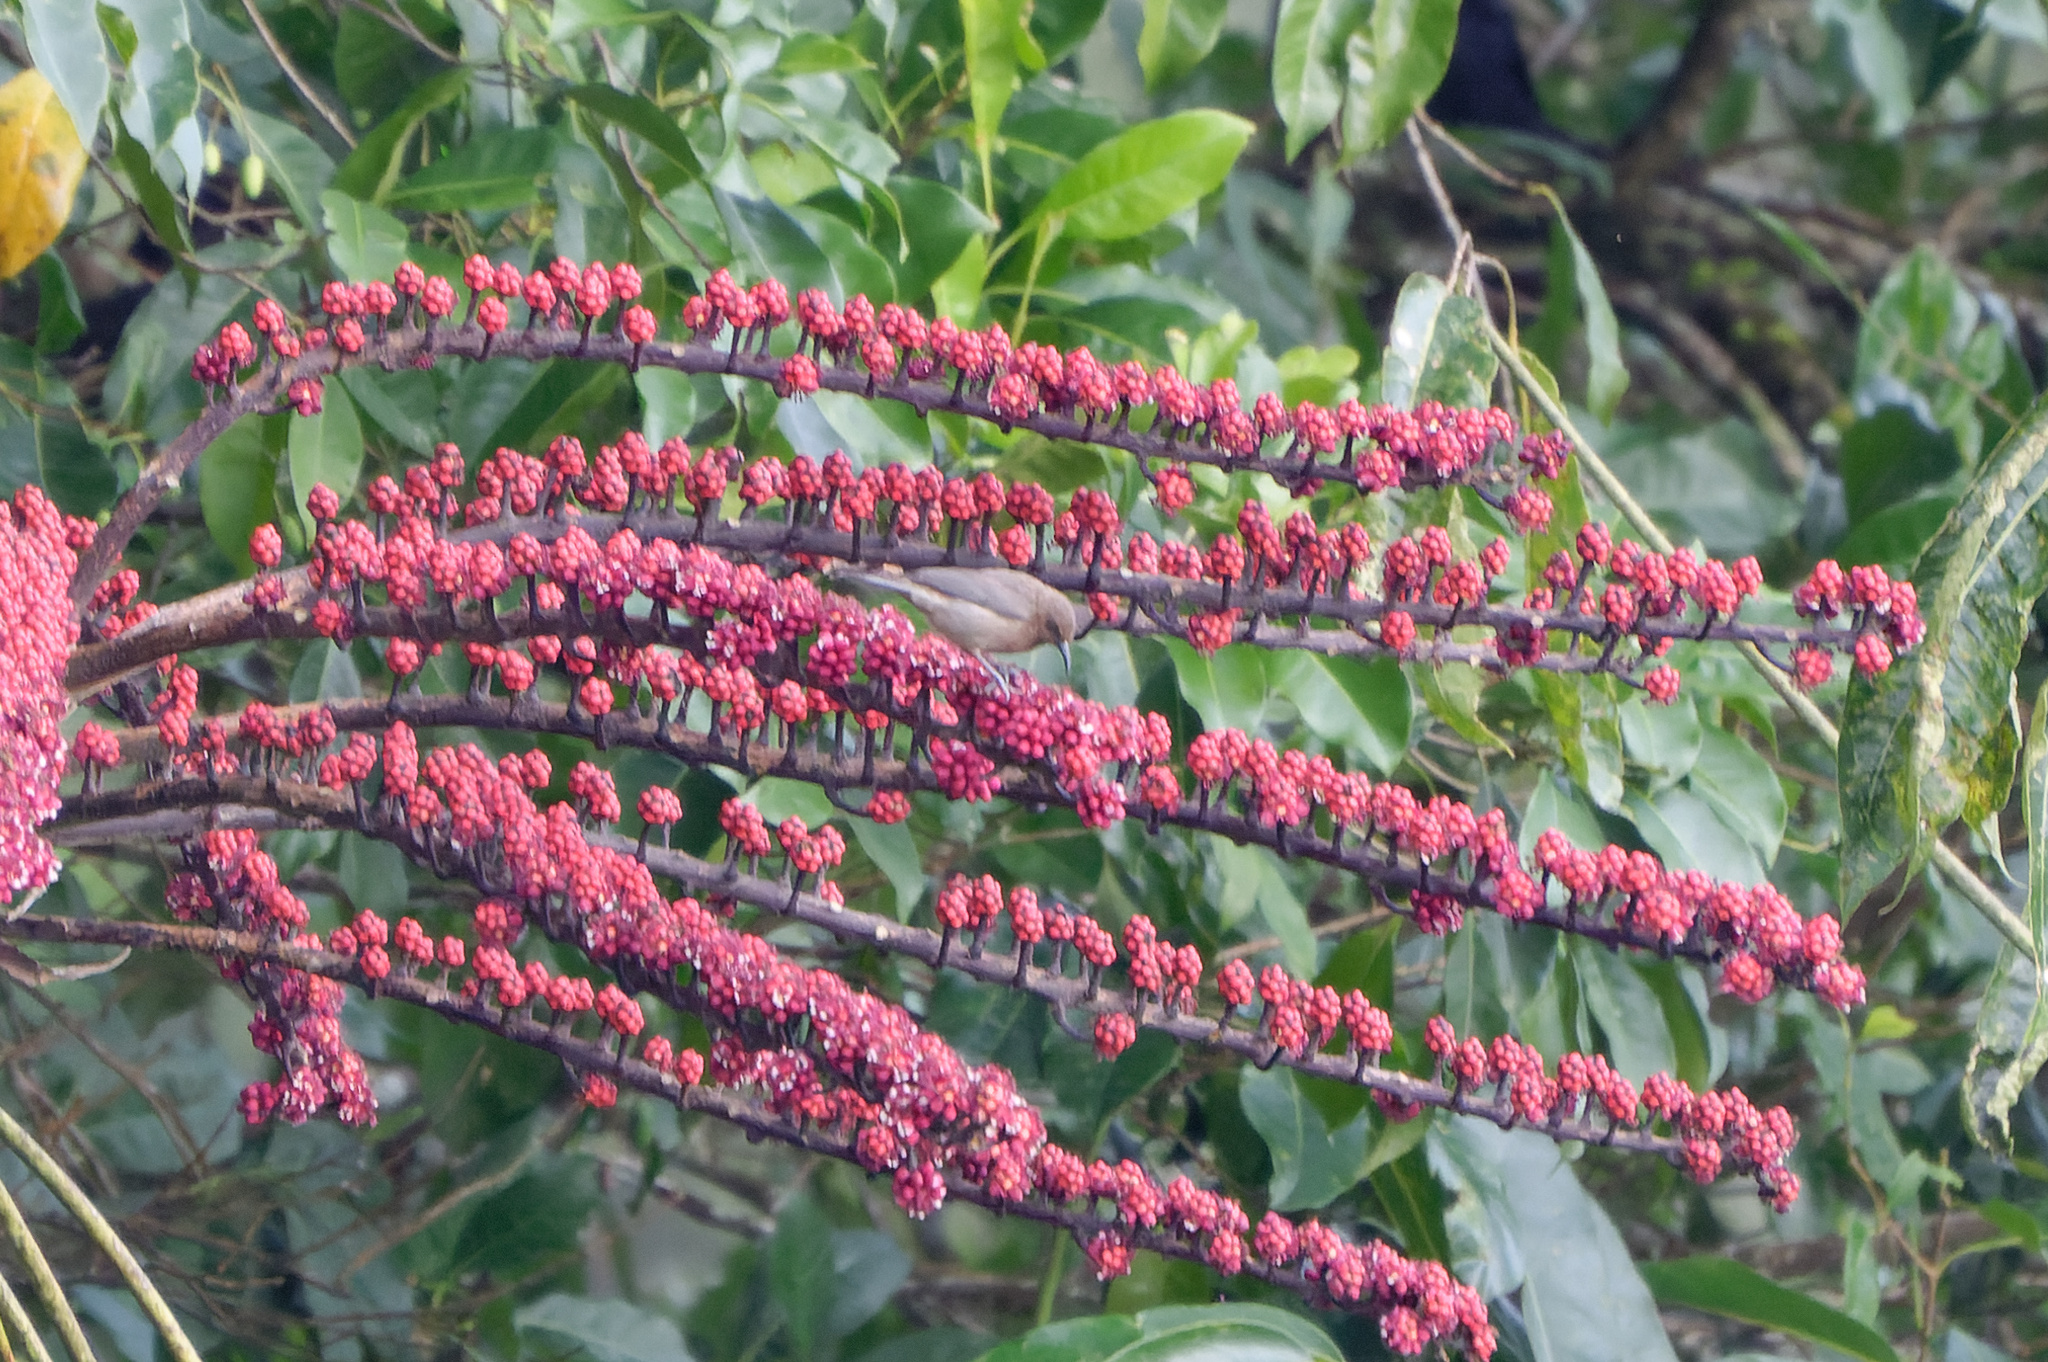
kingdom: Animalia
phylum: Chordata
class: Aves
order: Passeriformes
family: Meliphagidae
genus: Myzomela
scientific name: Myzomela obscura
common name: Dusky myzomela
